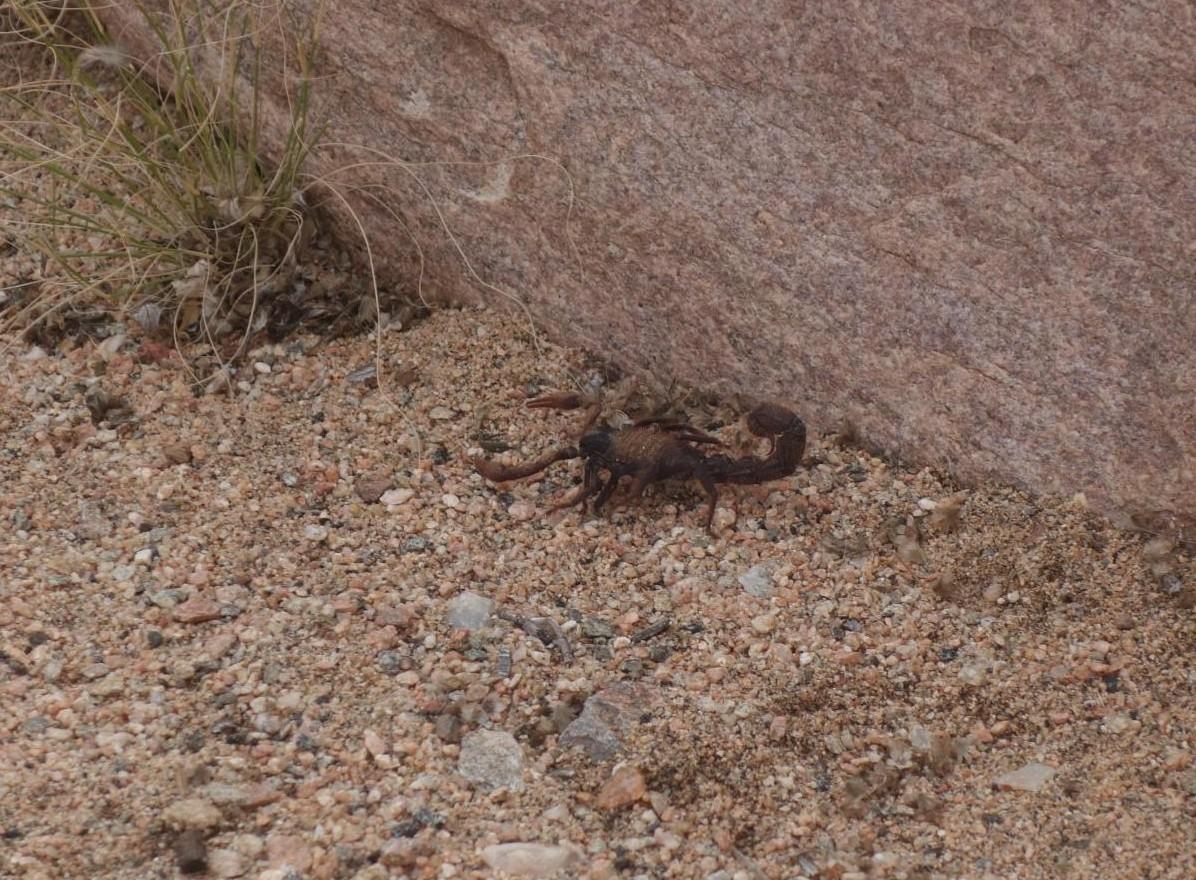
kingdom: Animalia
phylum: Arthropoda
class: Arachnida
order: Scorpiones
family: Buthidae
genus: Parabuthus
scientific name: Parabuthus villosus
